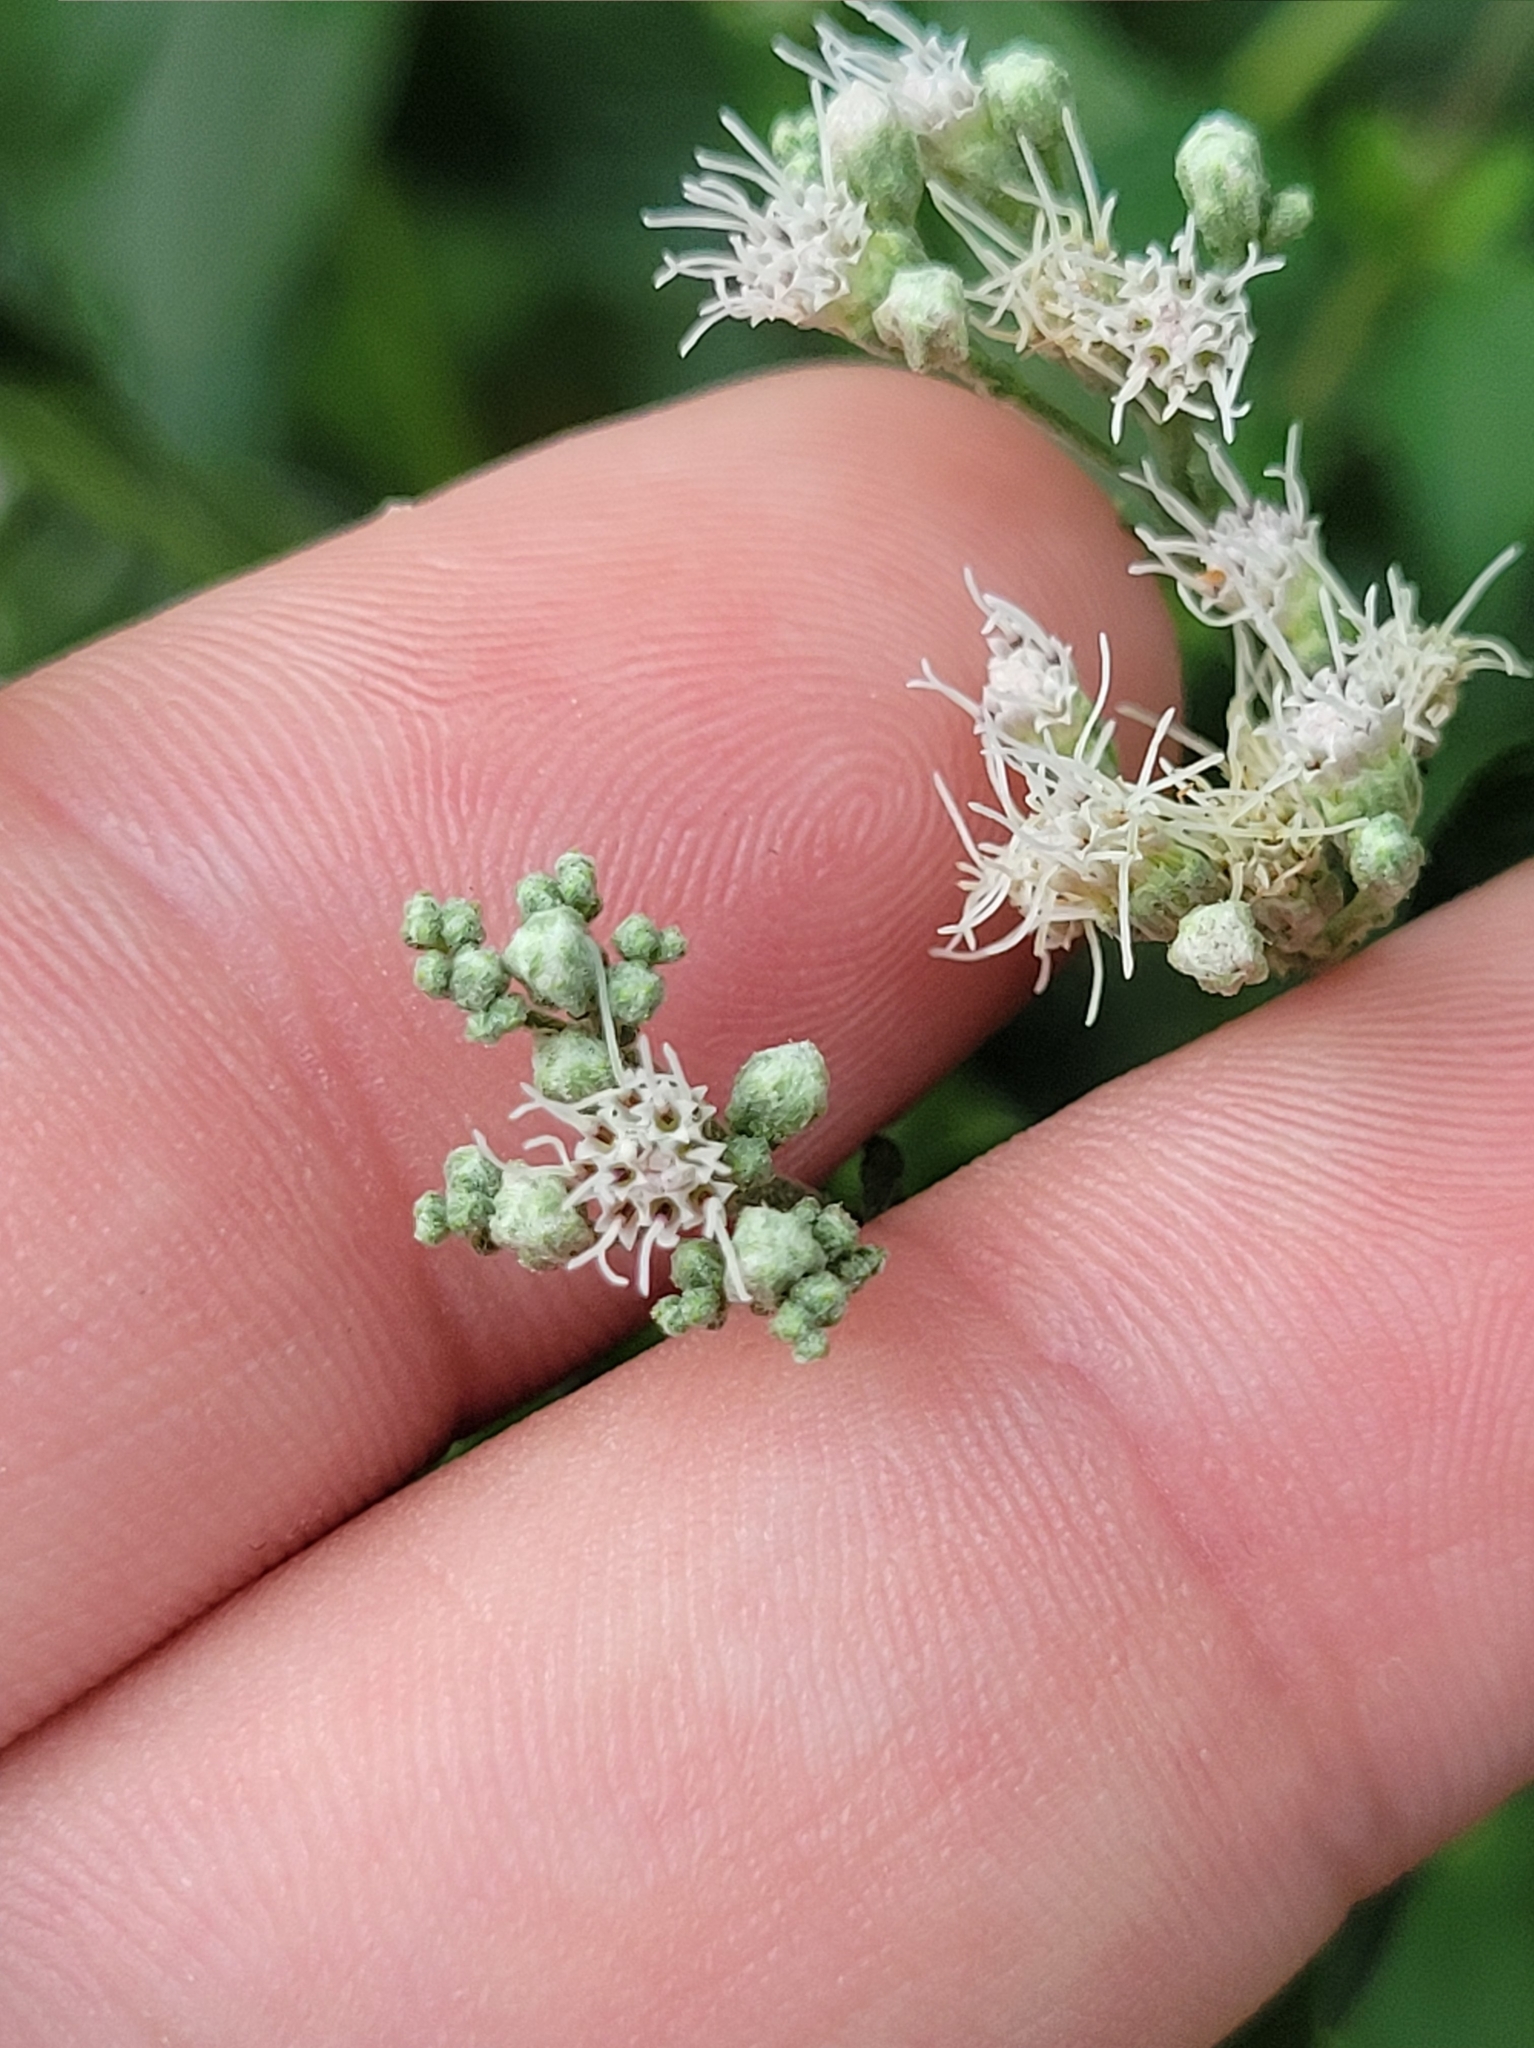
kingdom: Plantae
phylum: Tracheophyta
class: Magnoliopsida
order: Asterales
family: Asteraceae
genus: Eupatorium
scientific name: Eupatorium serotinum
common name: Late boneset
